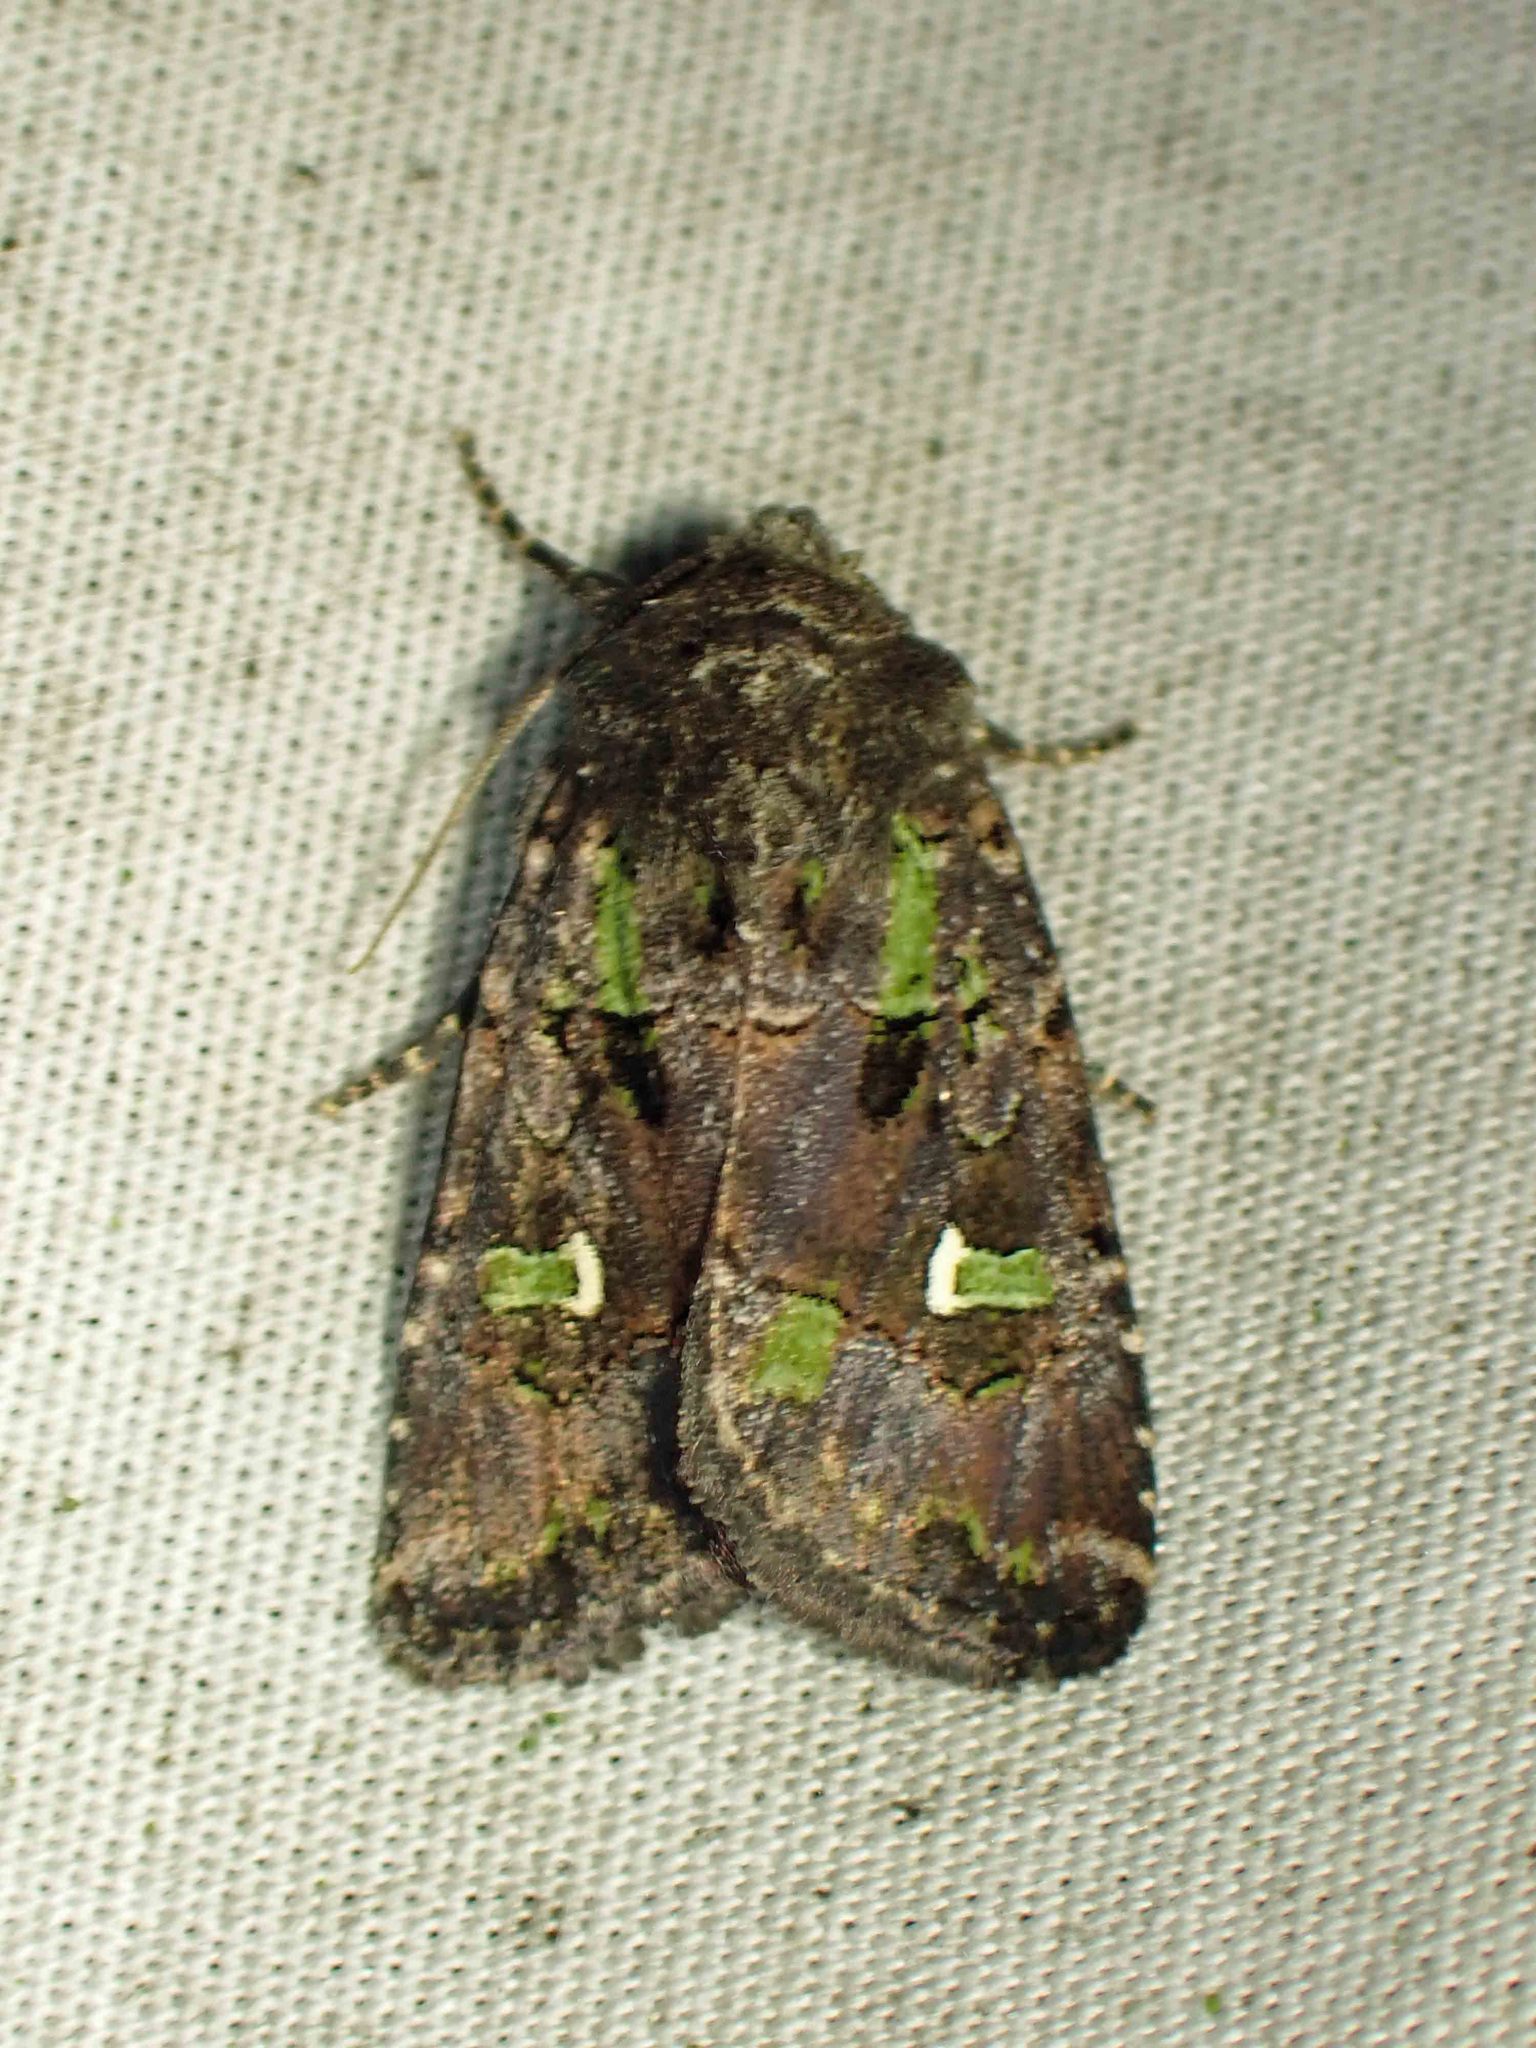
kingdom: Animalia
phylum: Arthropoda
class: Insecta
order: Lepidoptera
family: Noctuidae
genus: Lacinipolia
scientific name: Lacinipolia renigera
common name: Kidney-spotted minor
